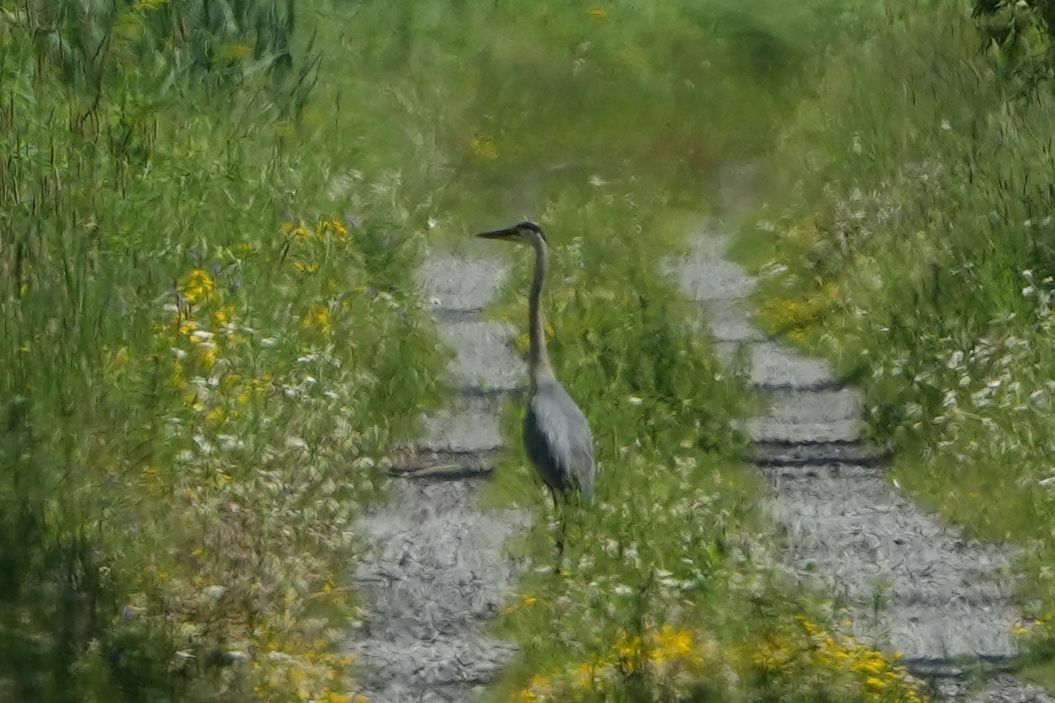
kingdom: Animalia
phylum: Chordata
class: Aves
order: Pelecaniformes
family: Ardeidae
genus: Ardea
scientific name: Ardea herodias
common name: Great blue heron
